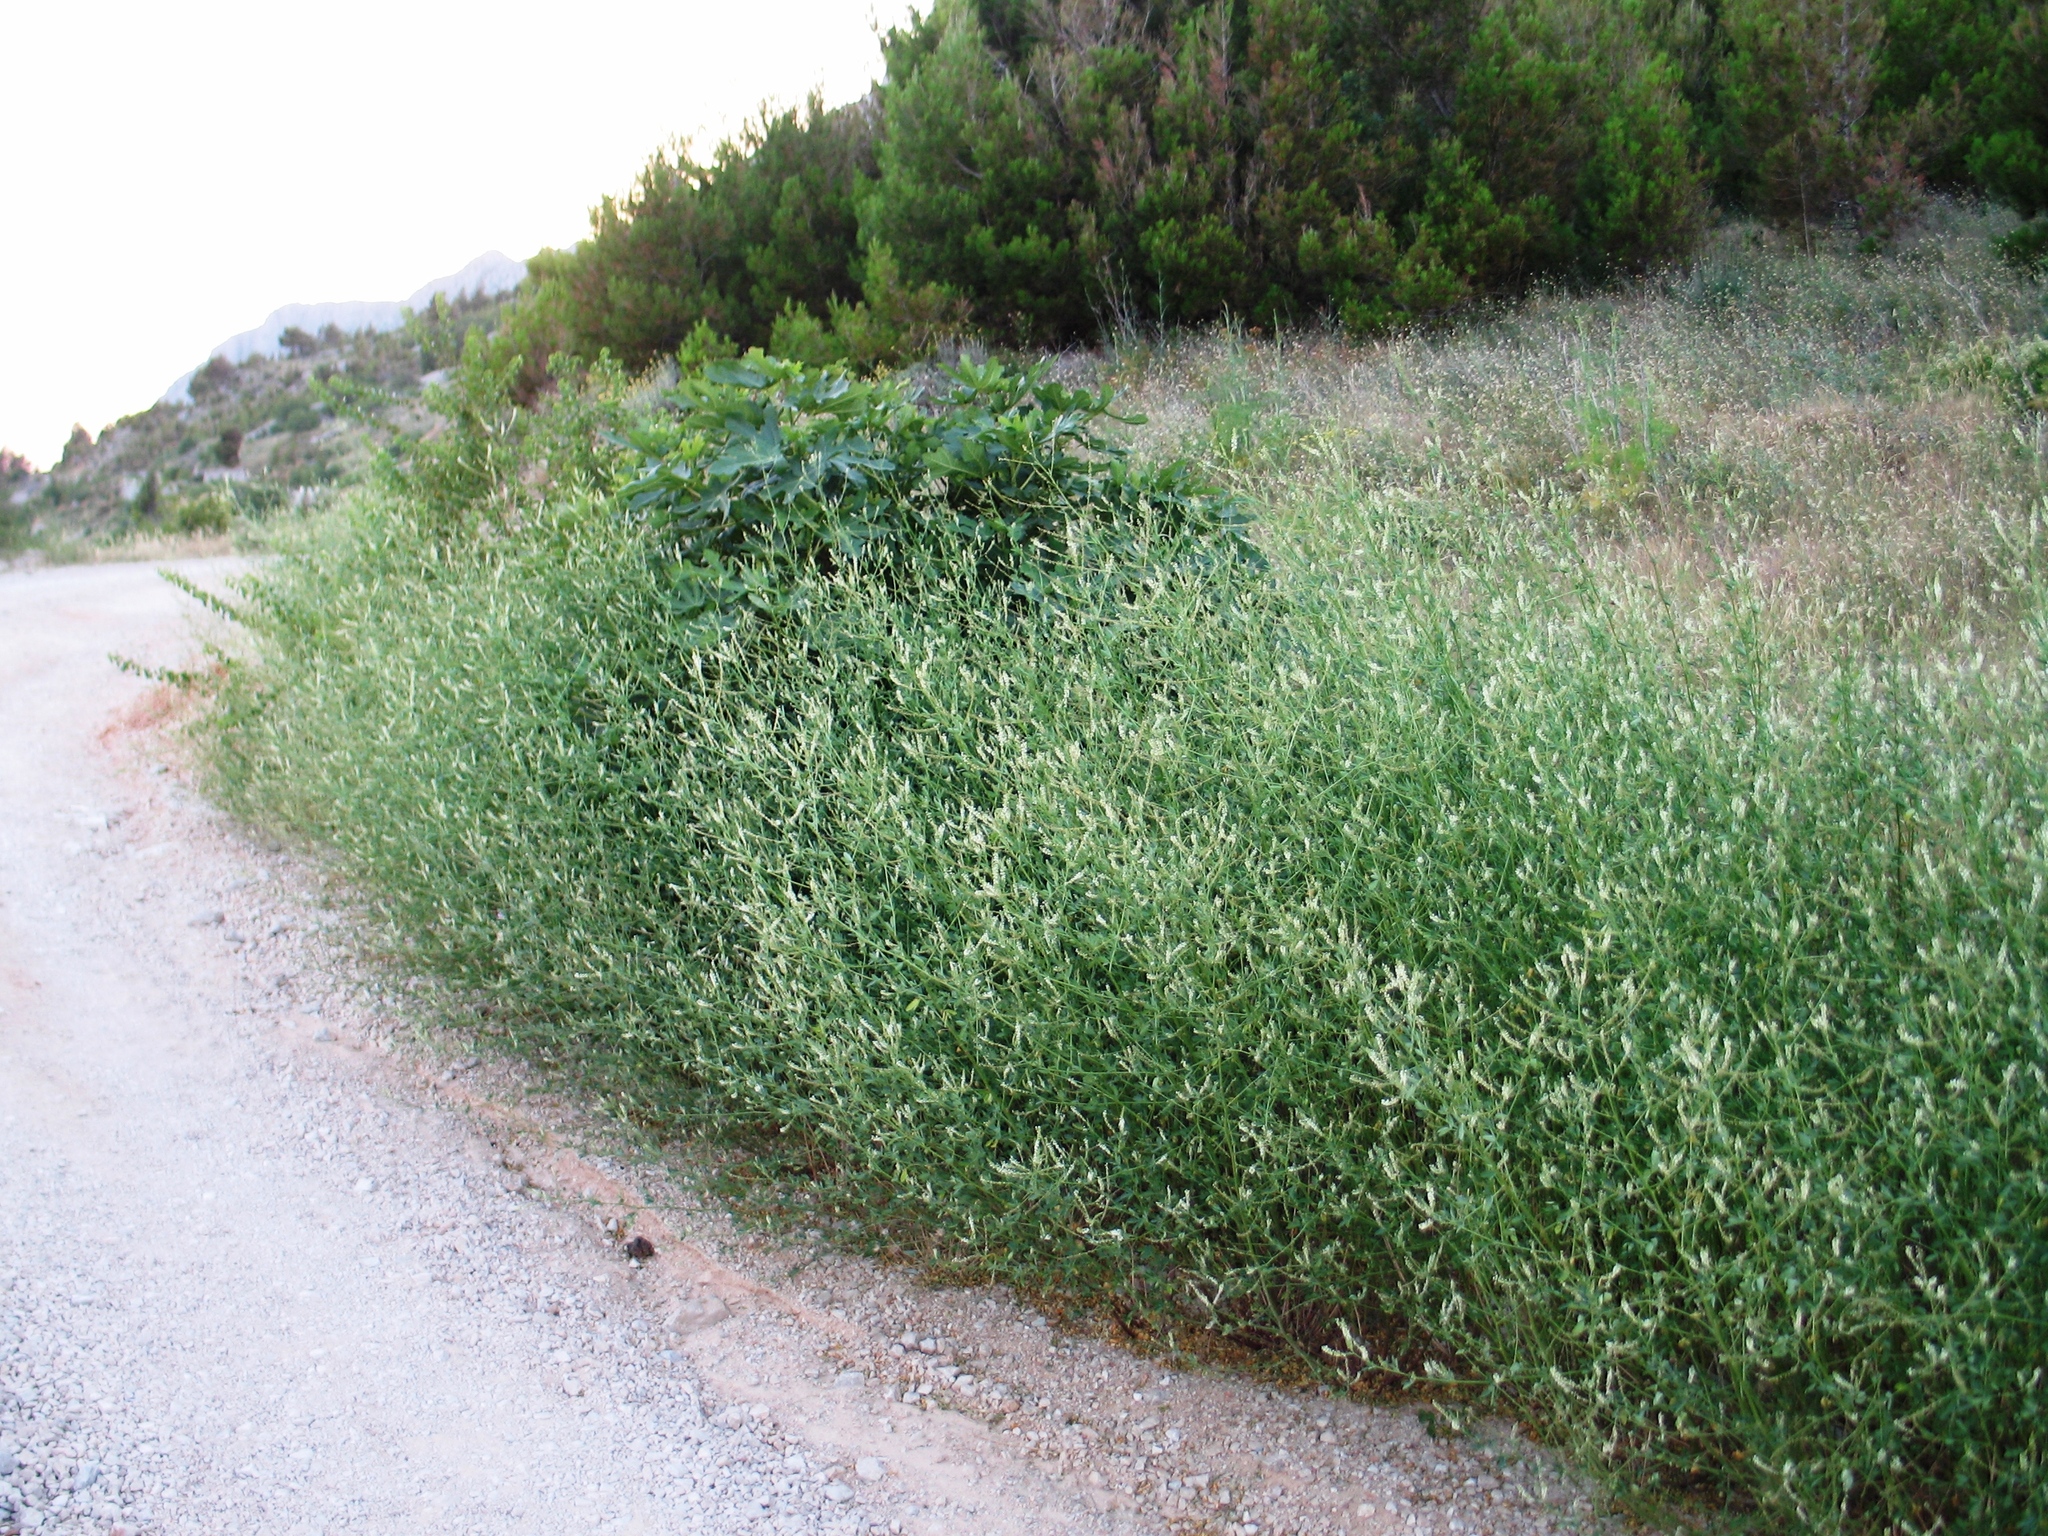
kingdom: Plantae
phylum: Tracheophyta
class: Magnoliopsida
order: Fabales
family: Fabaceae
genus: Melilotus
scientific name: Melilotus albus
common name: White melilot
